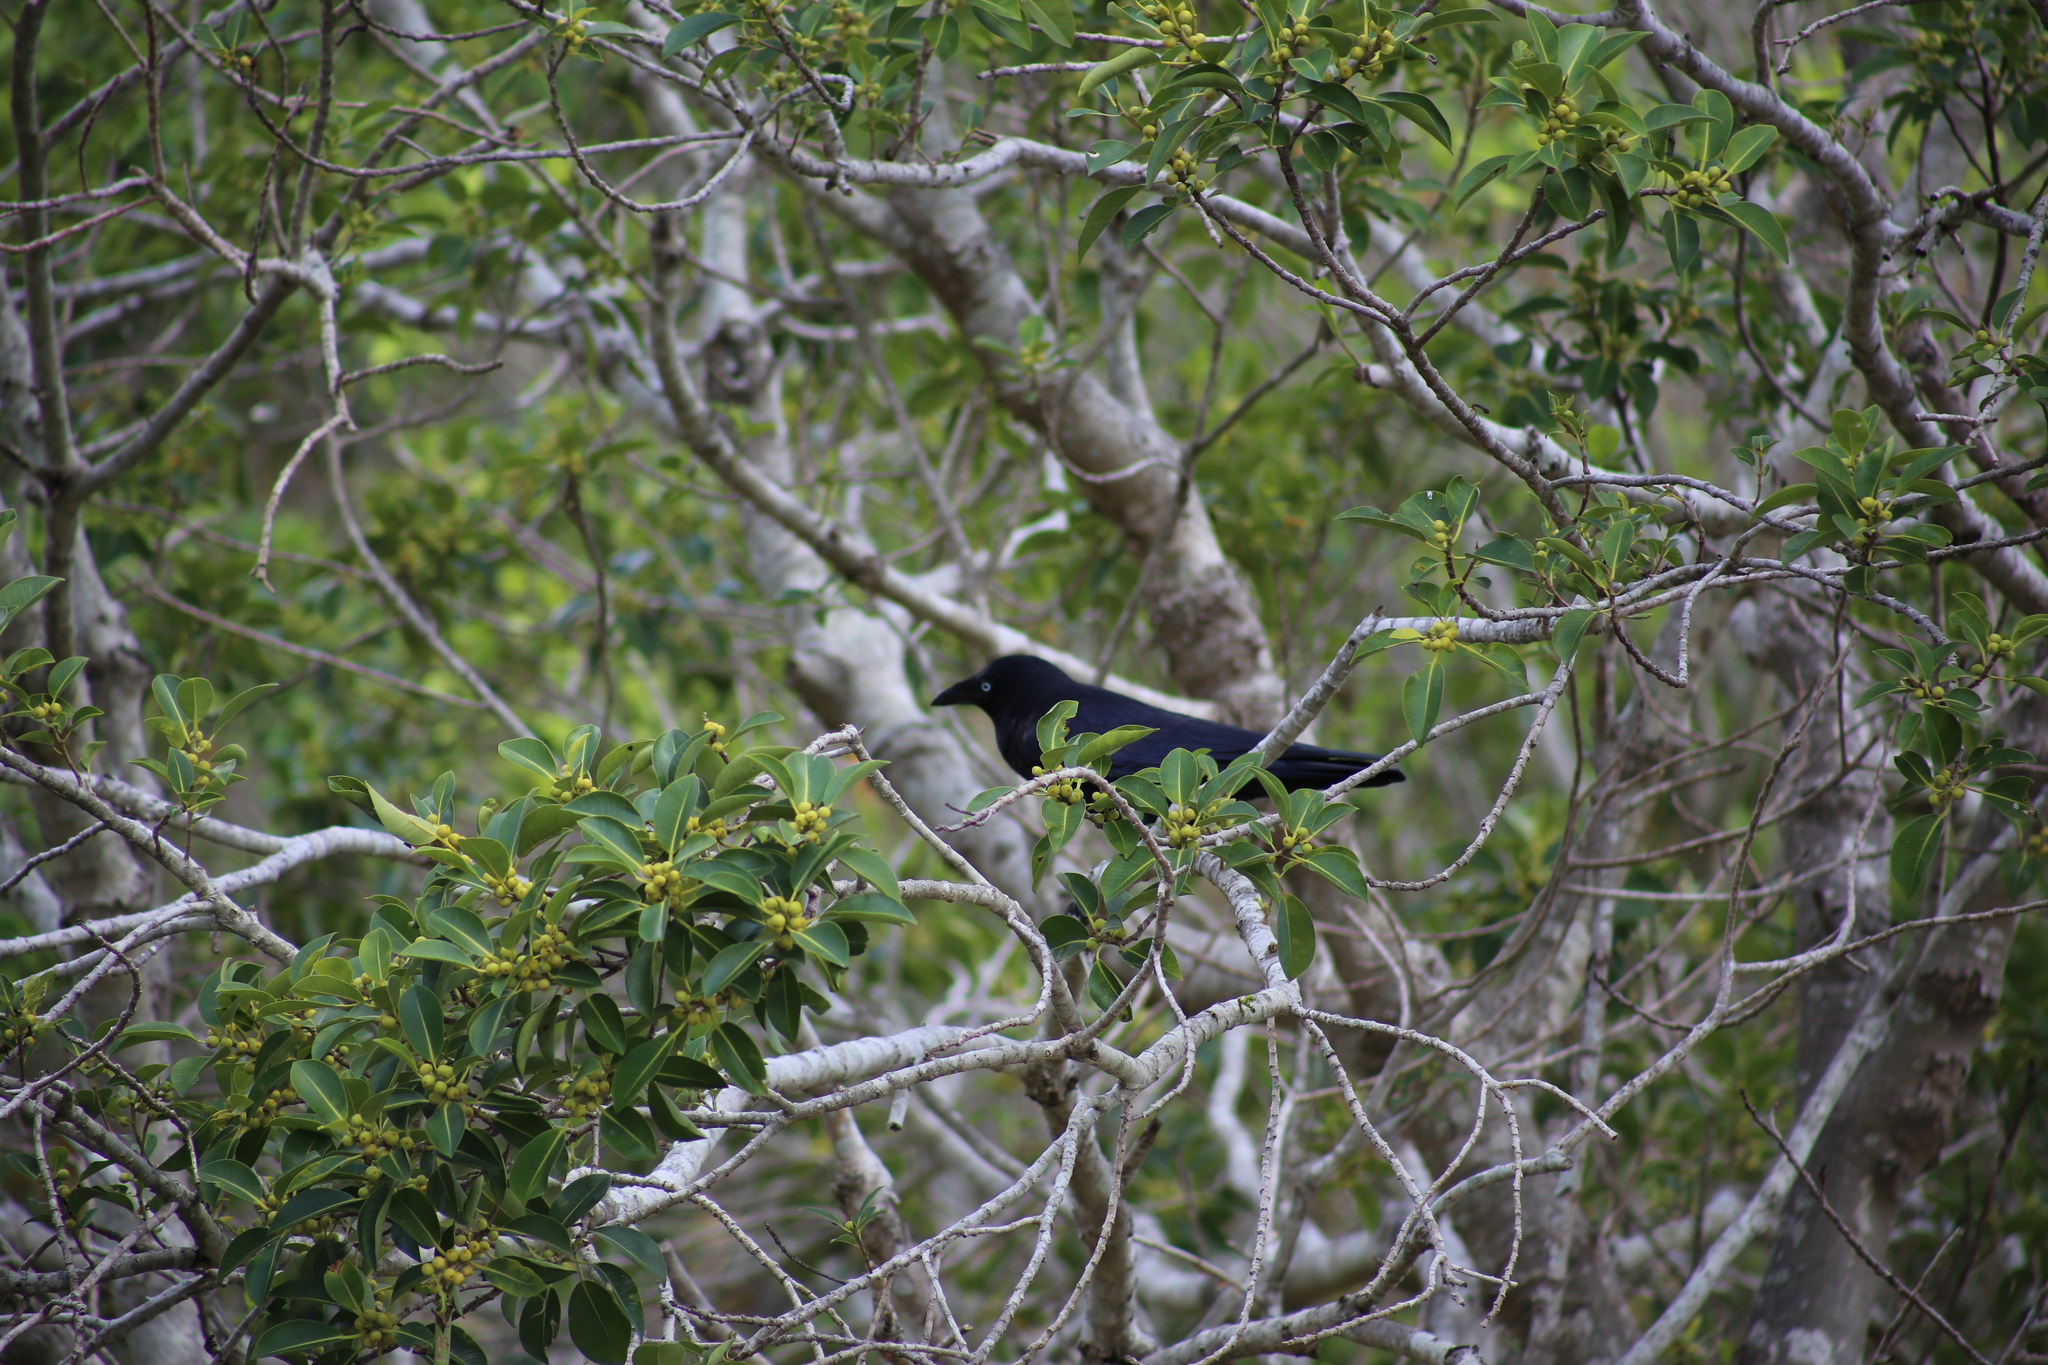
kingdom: Animalia
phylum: Chordata
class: Aves
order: Passeriformes
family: Corvidae
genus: Corvus
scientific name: Corvus orru
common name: Torresian crow
